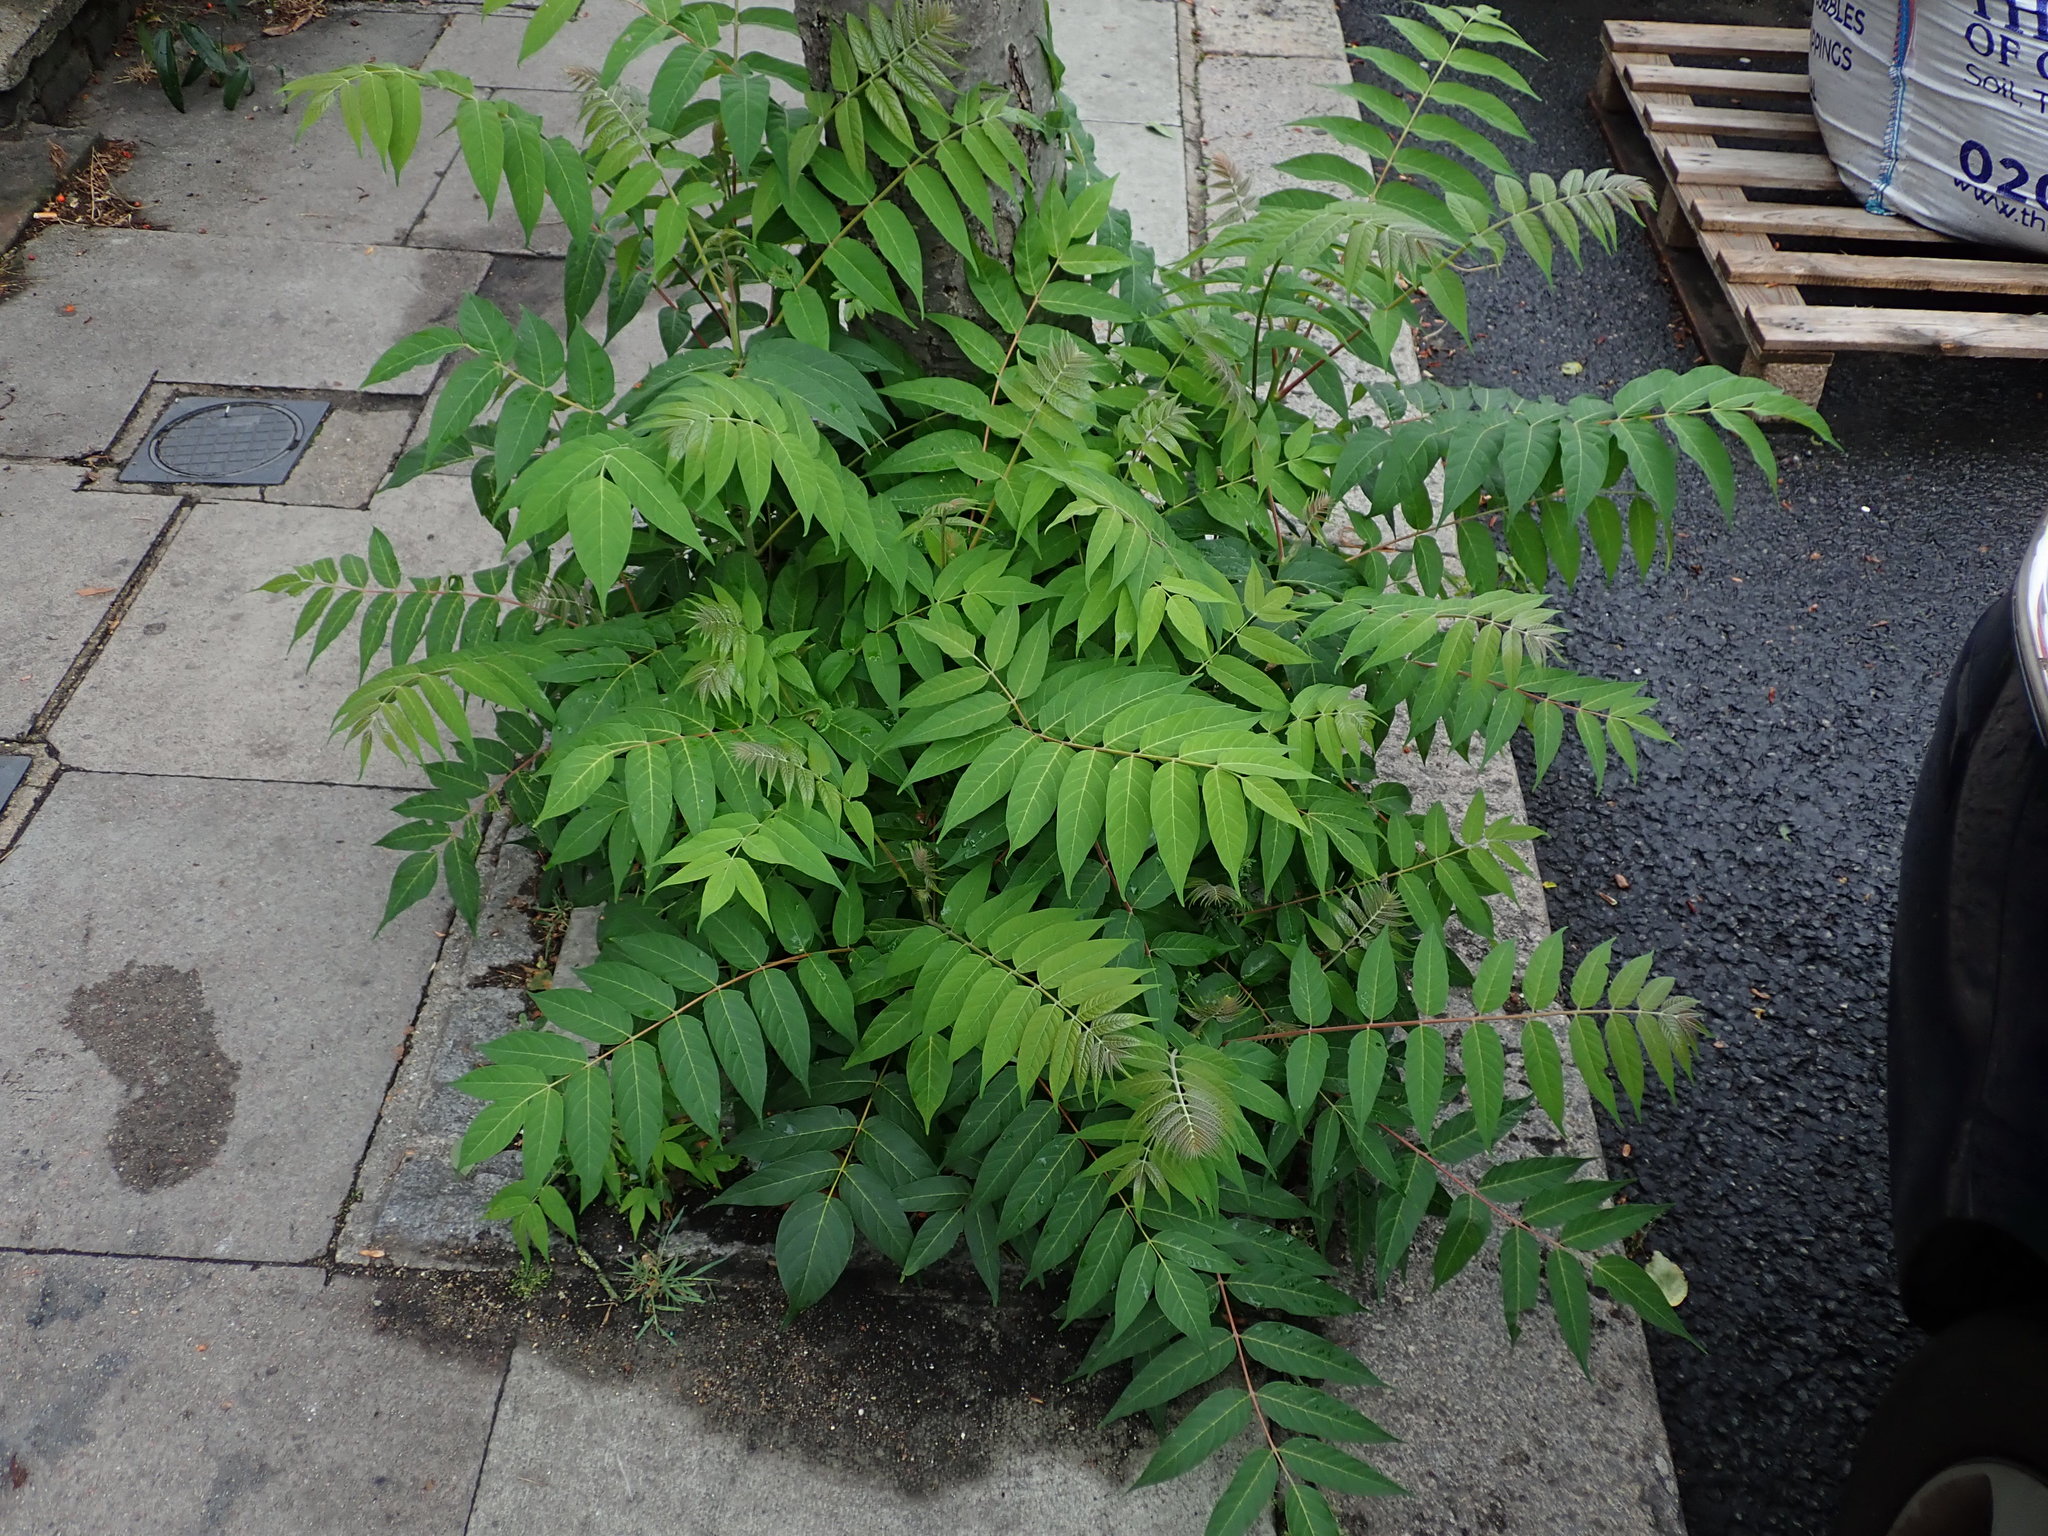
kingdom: Plantae
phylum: Tracheophyta
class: Magnoliopsida
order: Sapindales
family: Simaroubaceae
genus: Ailanthus
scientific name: Ailanthus altissima
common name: Tree-of-heaven
